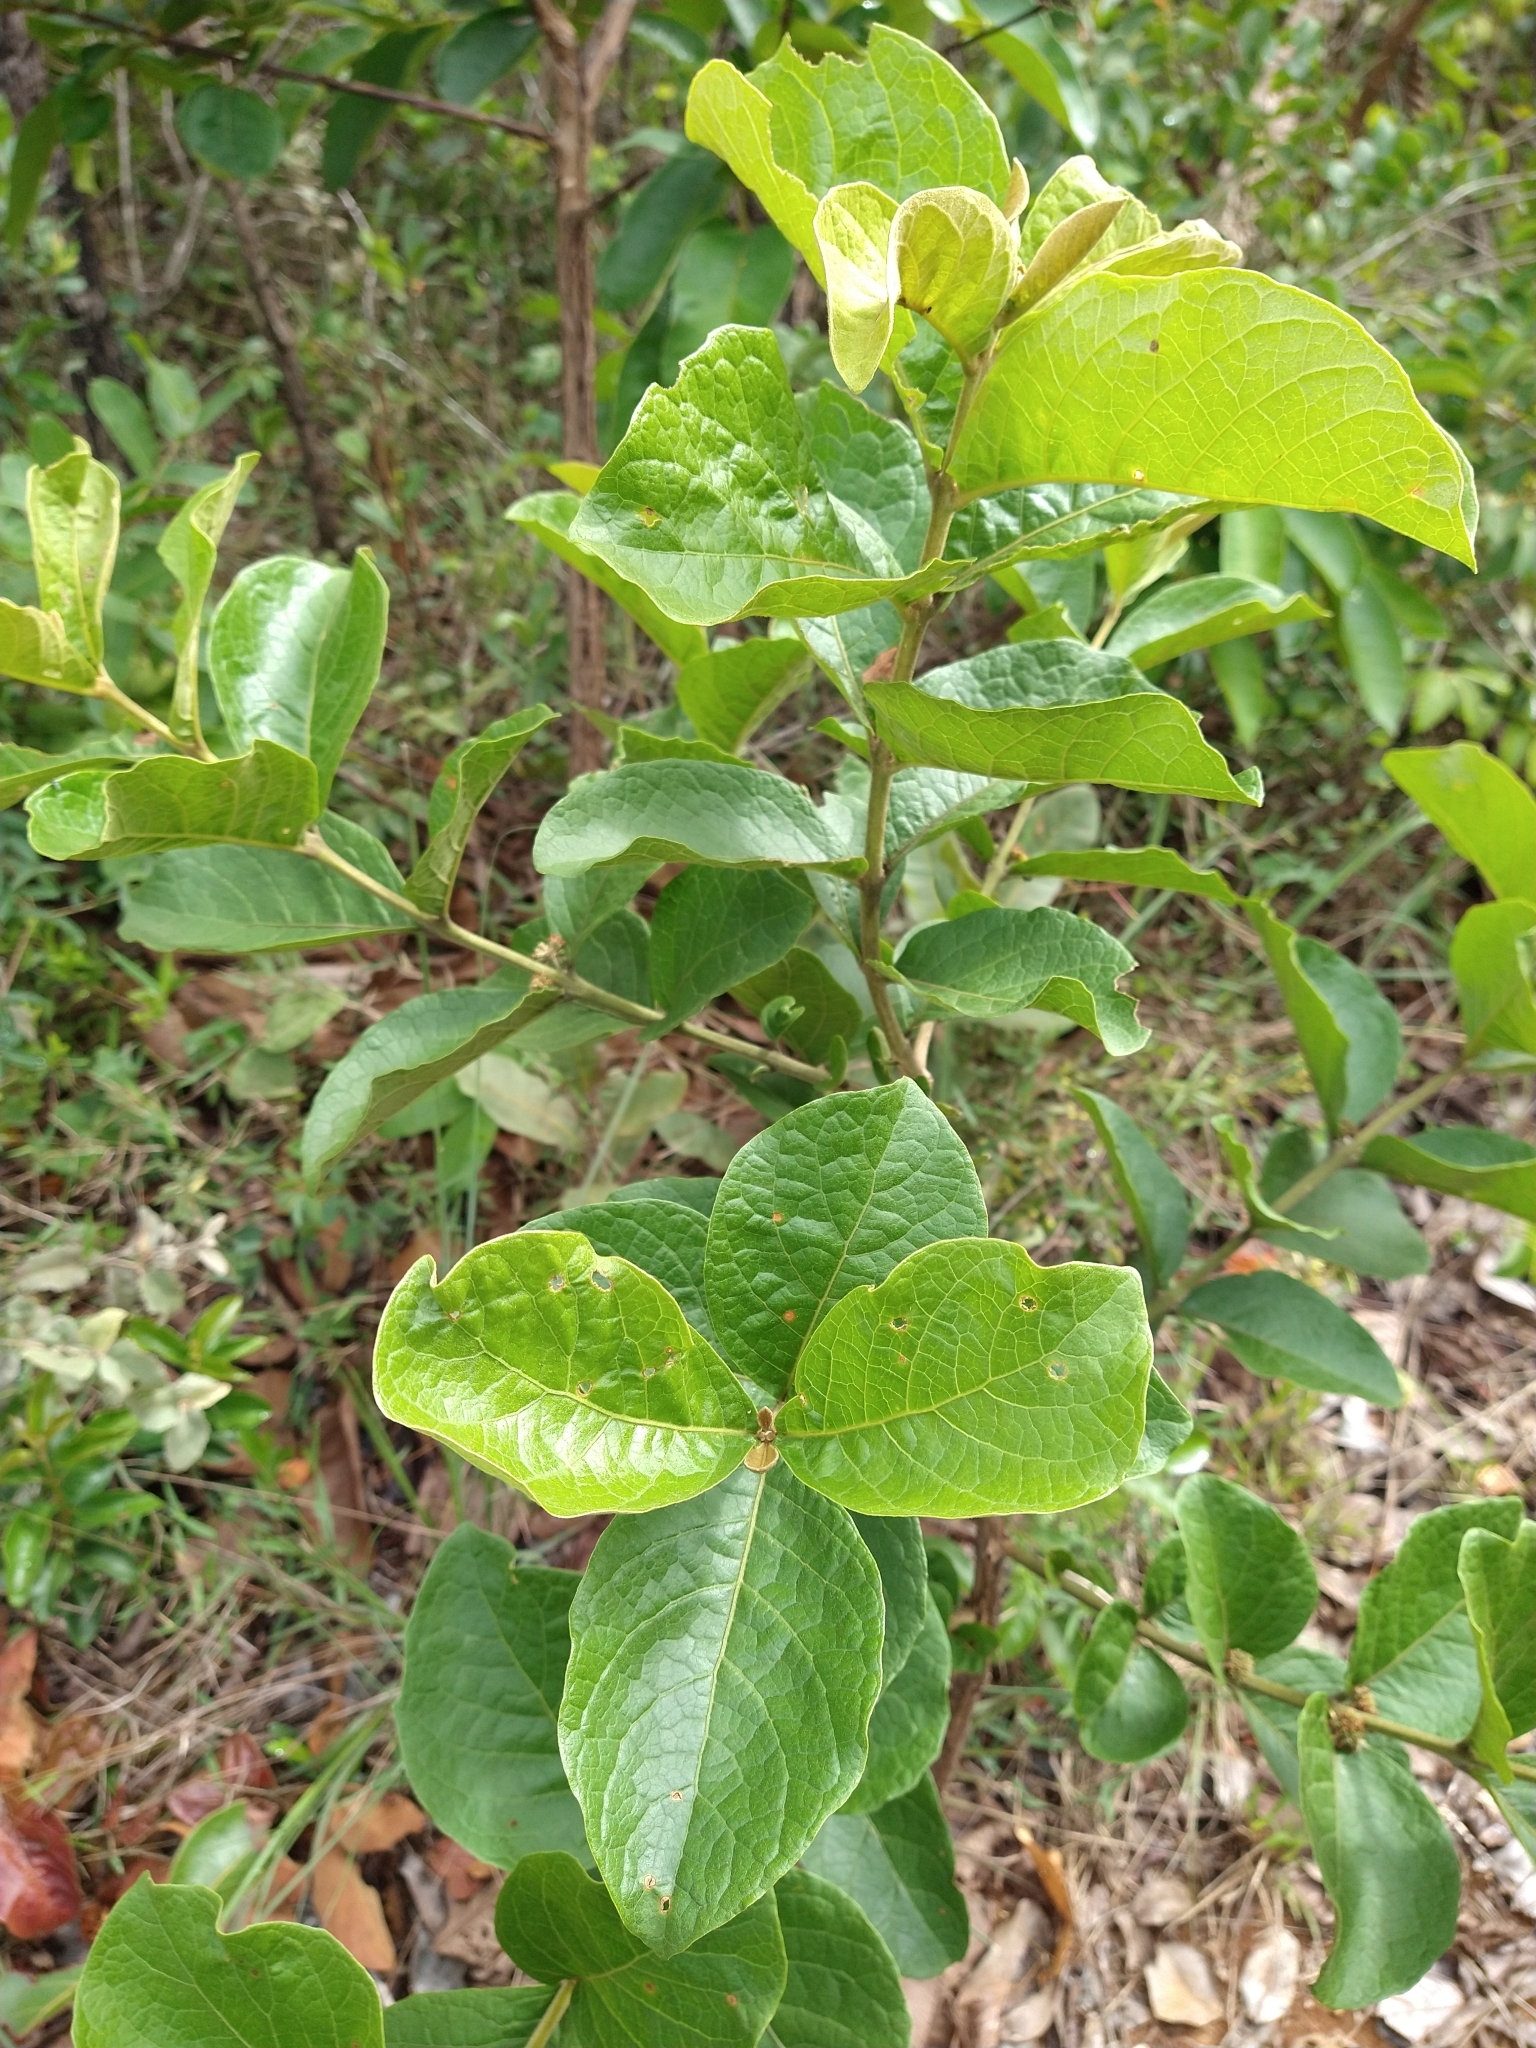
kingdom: Plantae
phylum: Tracheophyta
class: Magnoliopsida
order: Lamiales
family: Lamiaceae
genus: Aegiphila
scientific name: Aegiphila verticillata
